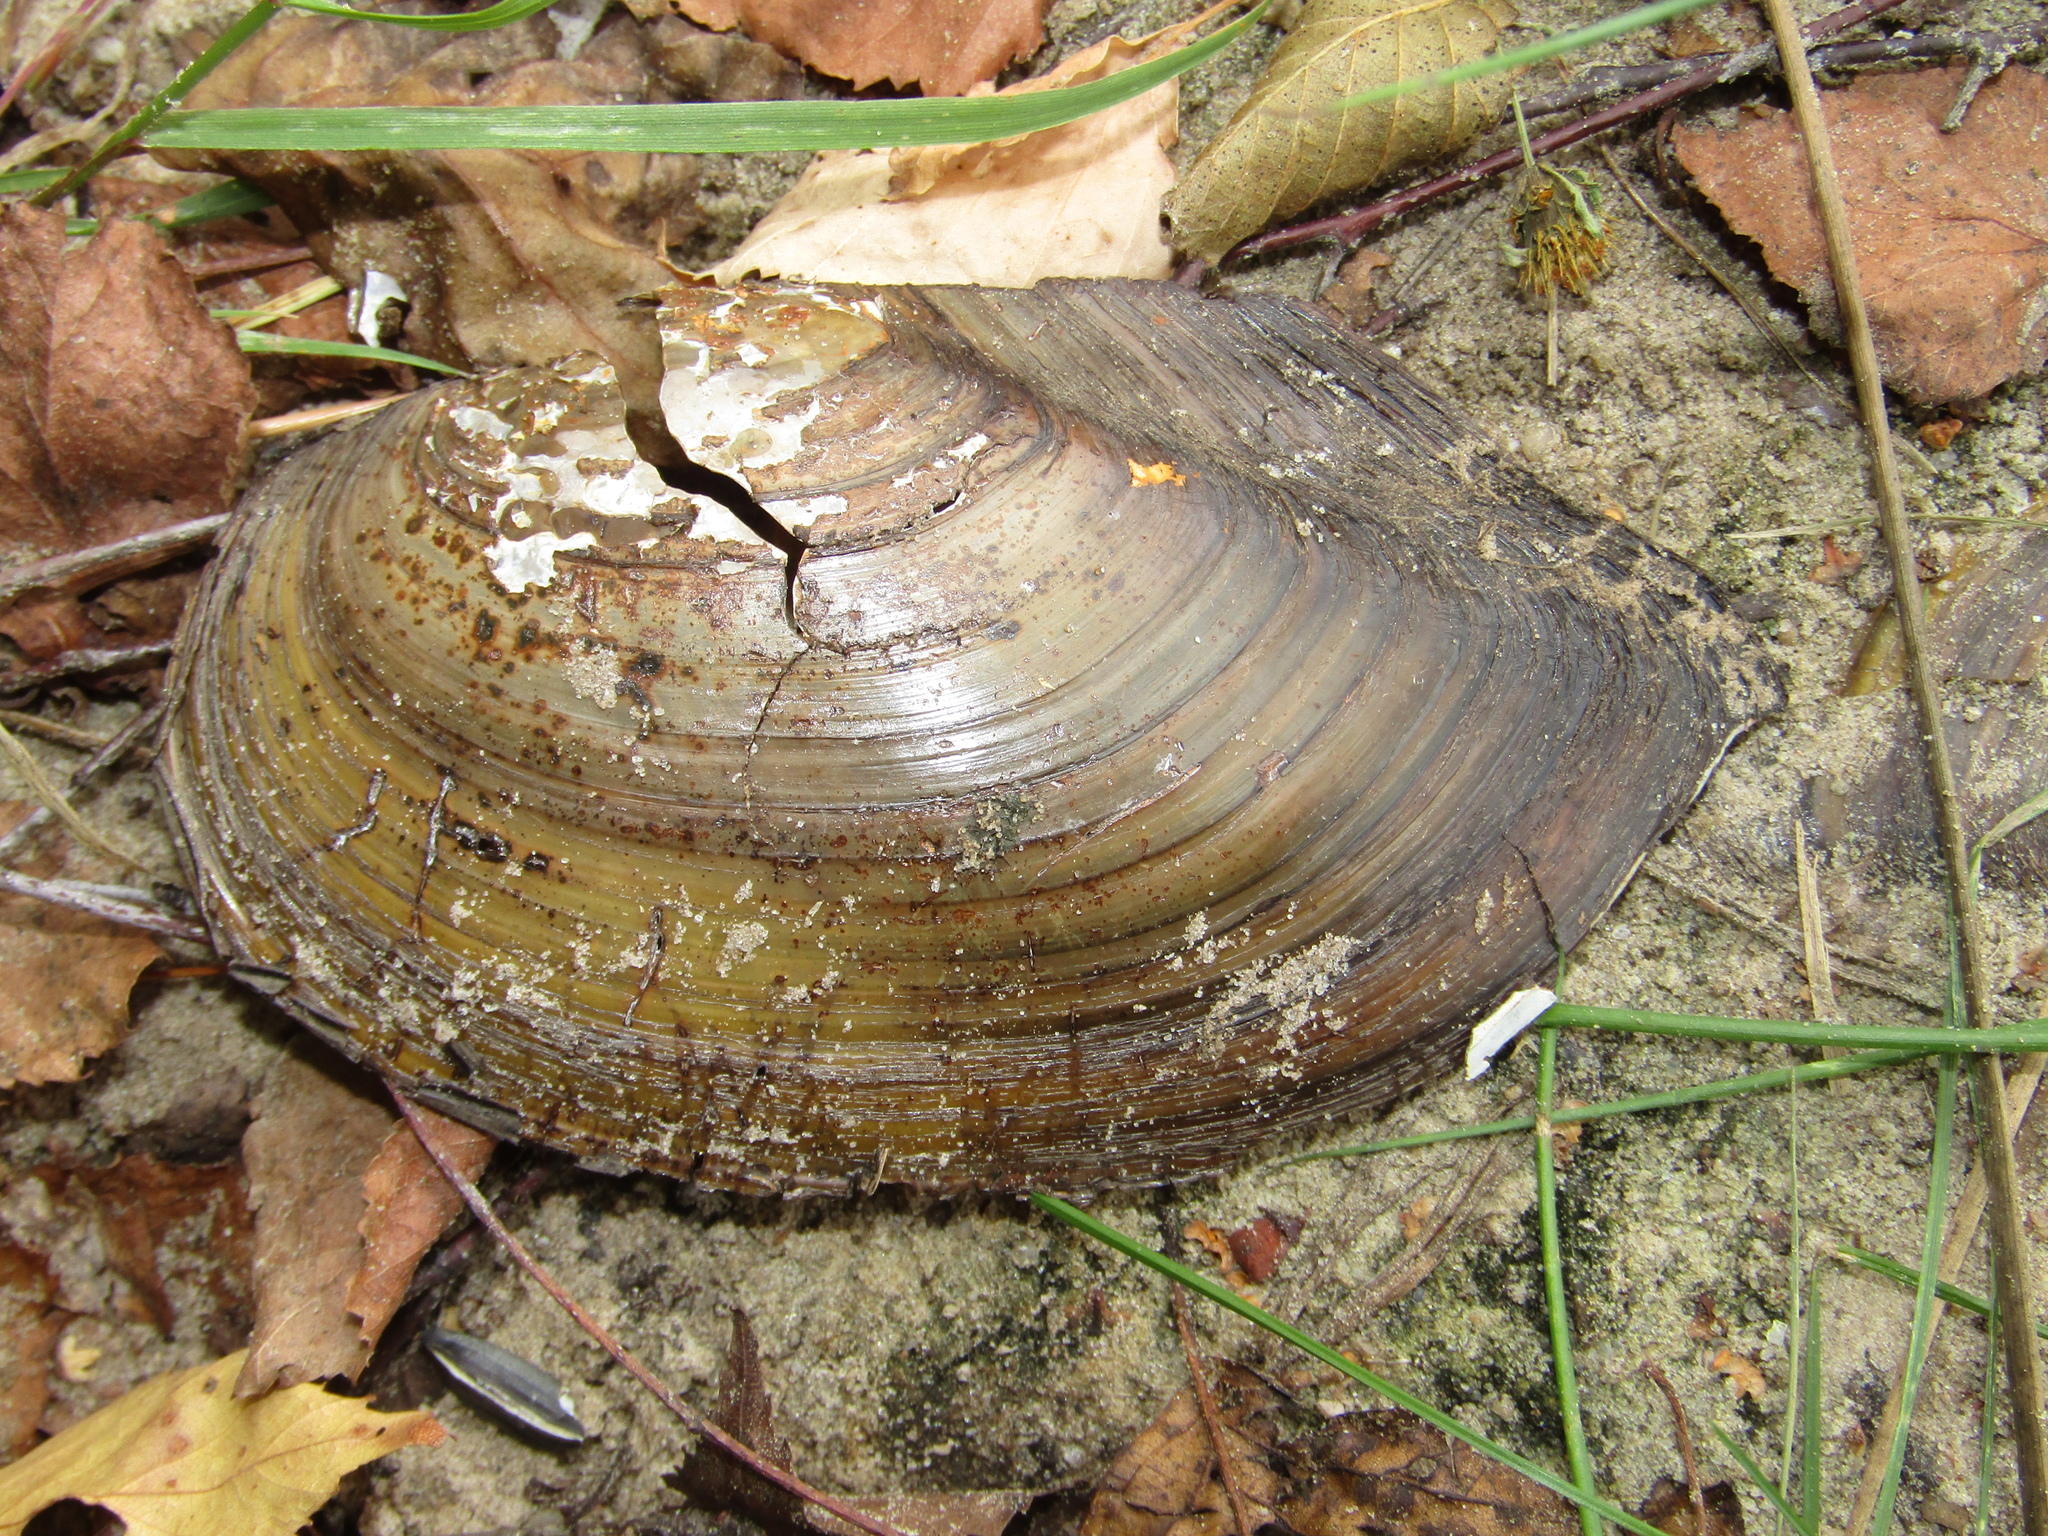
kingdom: Animalia
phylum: Mollusca
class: Bivalvia
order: Unionida
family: Unionidae
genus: Anodonta
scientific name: Anodonta cygnea
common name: Swan mussel
